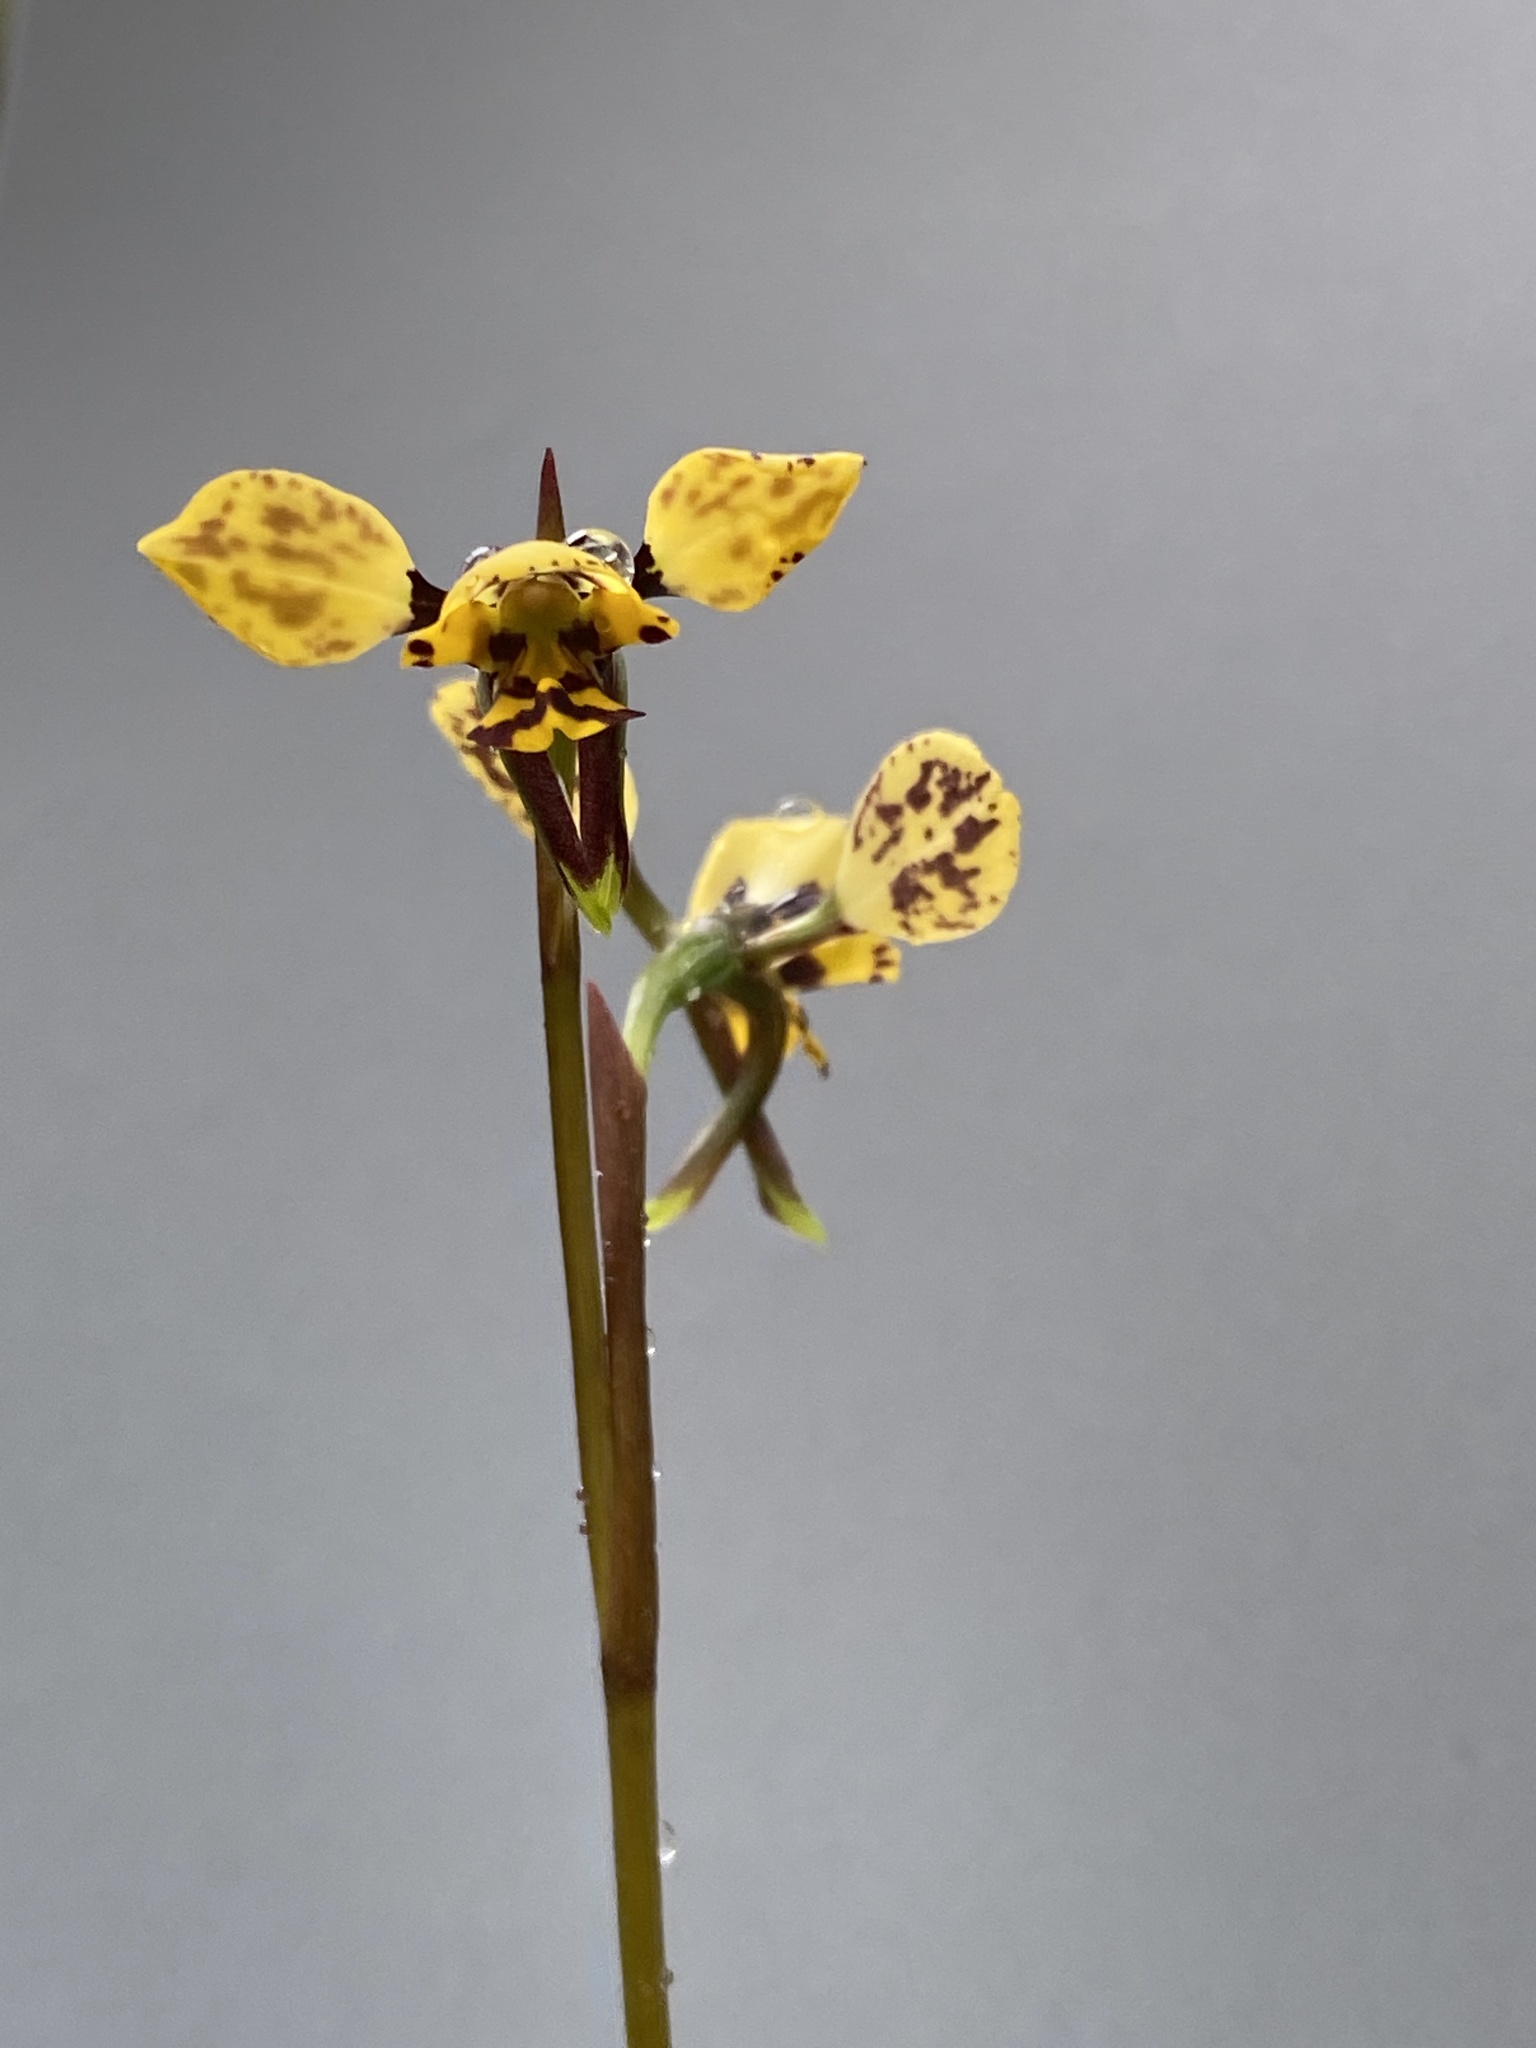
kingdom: Plantae
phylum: Tracheophyta
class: Liliopsida
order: Asparagales
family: Orchidaceae
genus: Diuris
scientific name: Diuris pardina
